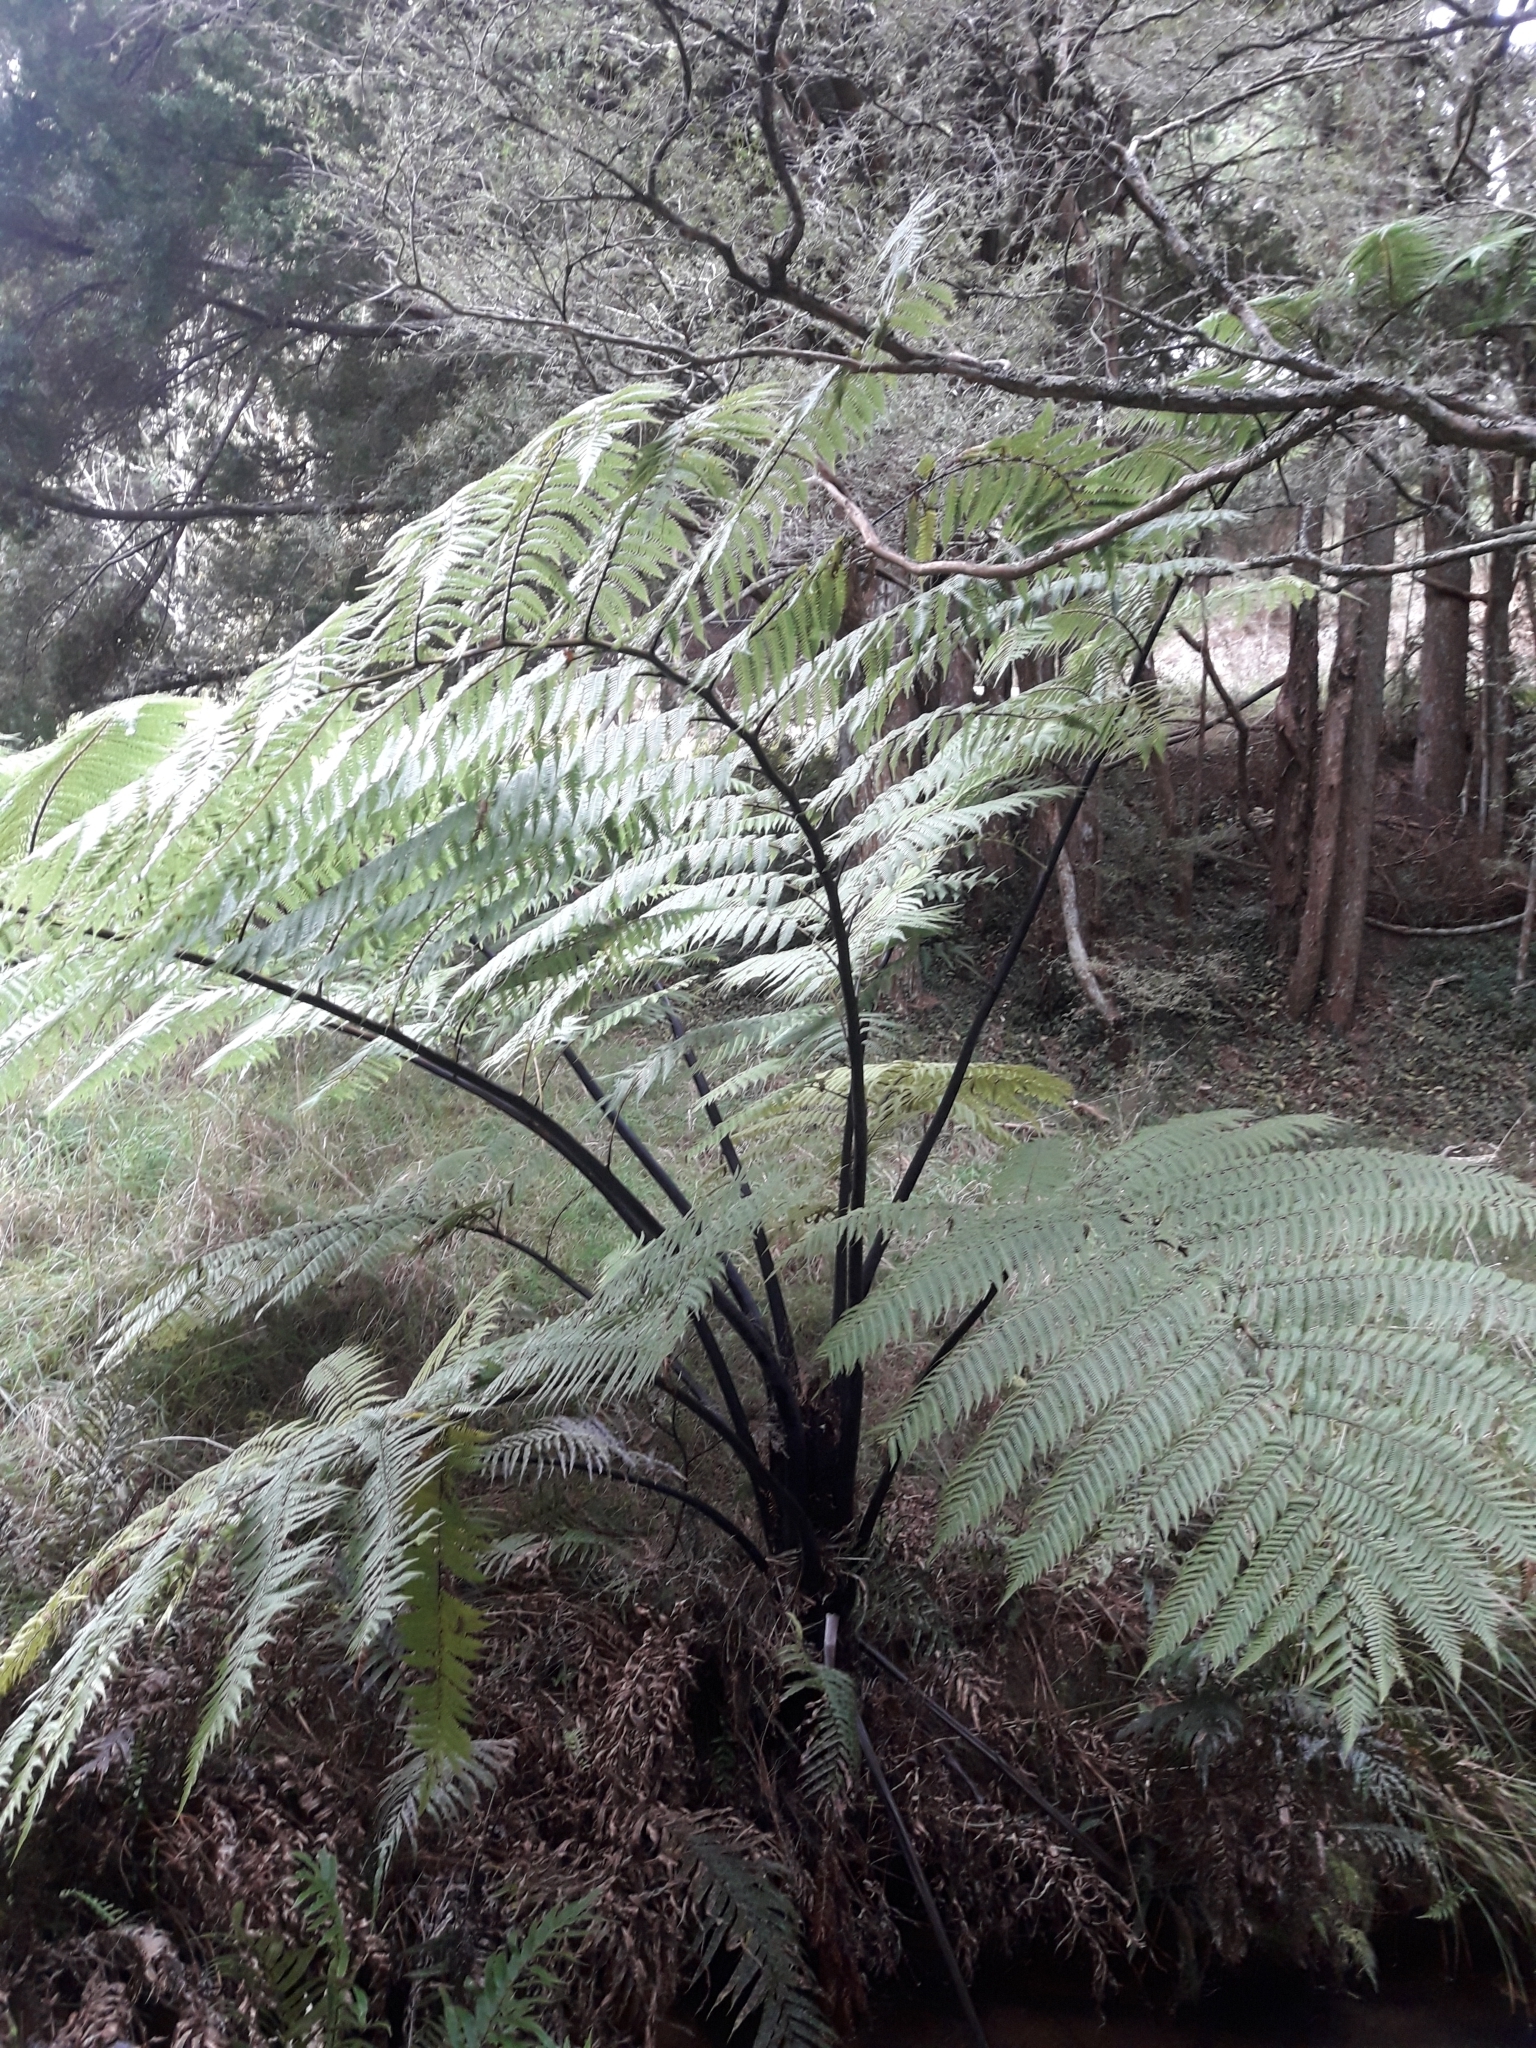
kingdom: Plantae
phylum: Tracheophyta
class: Polypodiopsida
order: Cyatheales
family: Cyatheaceae
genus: Sphaeropteris
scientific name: Sphaeropteris medullaris
